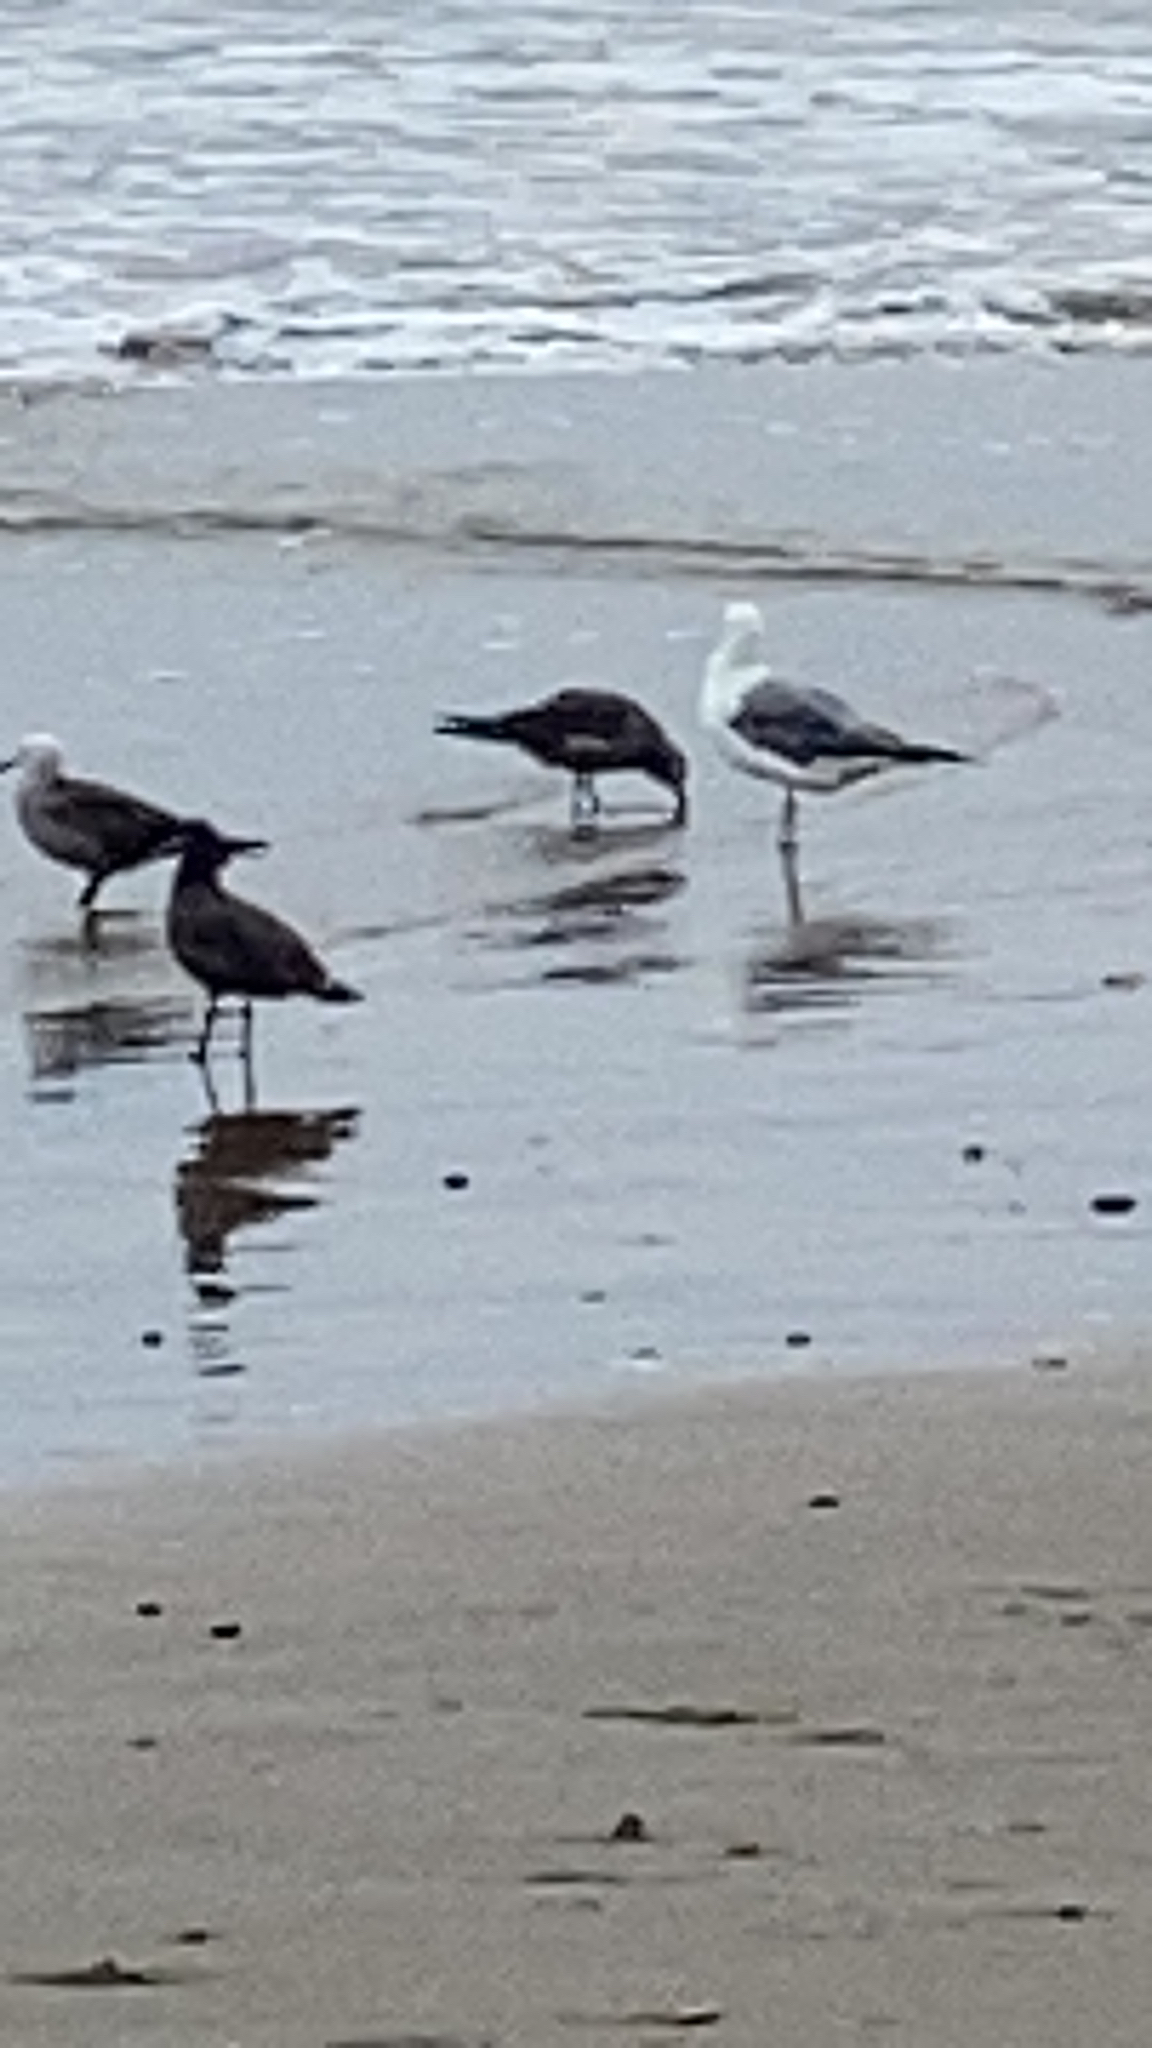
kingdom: Animalia
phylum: Chordata
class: Aves
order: Charadriiformes
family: Laridae
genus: Larus
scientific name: Larus heermanni
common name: Heermann's gull
